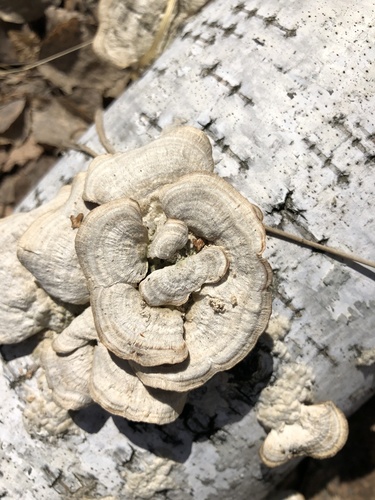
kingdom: Fungi
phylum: Basidiomycota
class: Agaricomycetes
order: Polyporales
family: Polyporaceae
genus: Trametes
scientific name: Trametes
